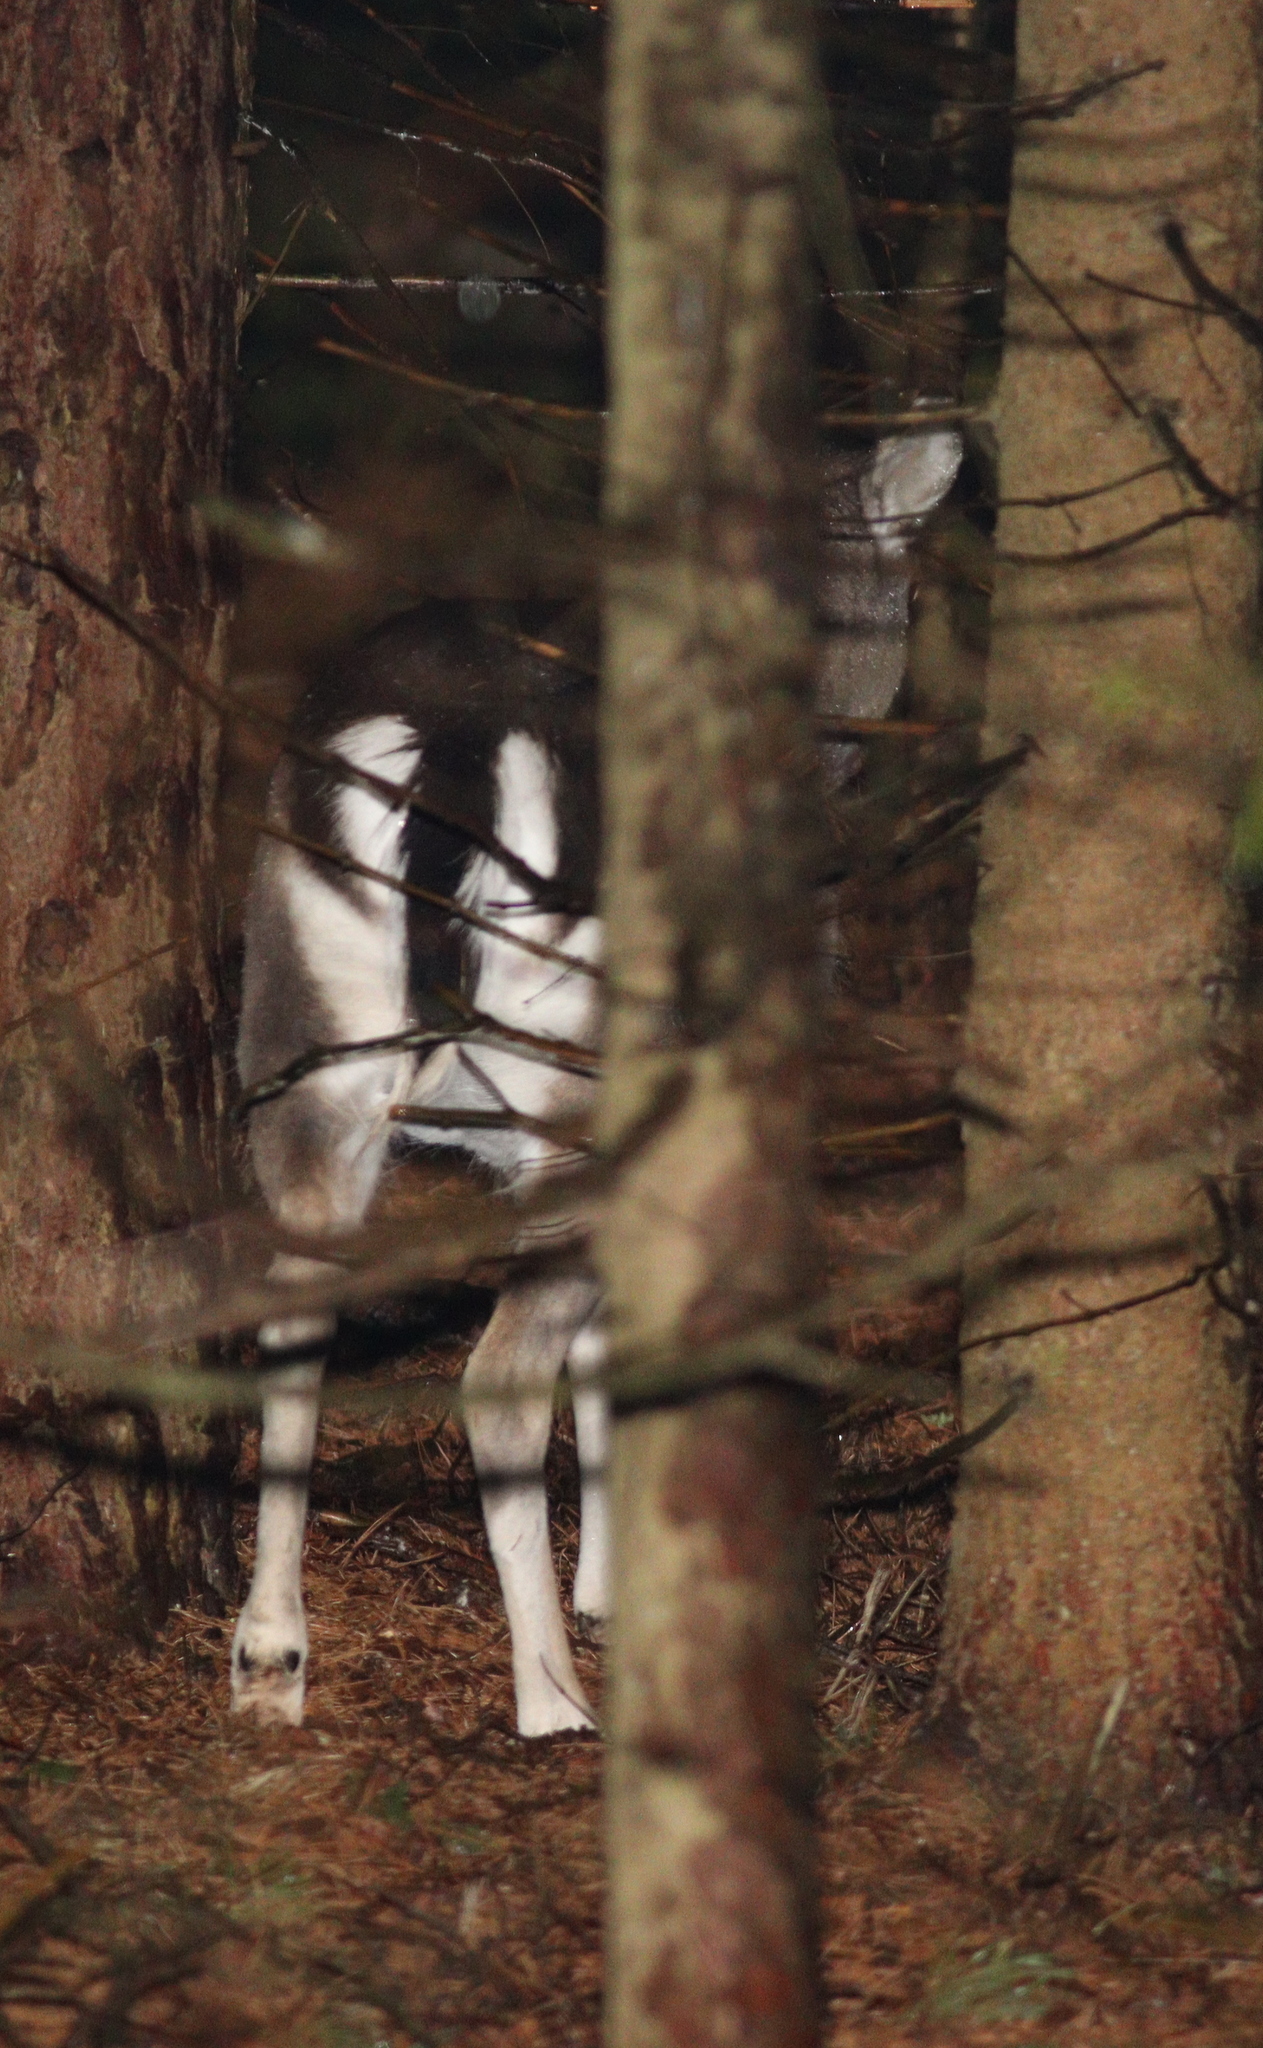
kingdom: Animalia
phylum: Chordata
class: Mammalia
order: Artiodactyla
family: Cervidae
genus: Dama
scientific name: Dama dama
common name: Fallow deer
